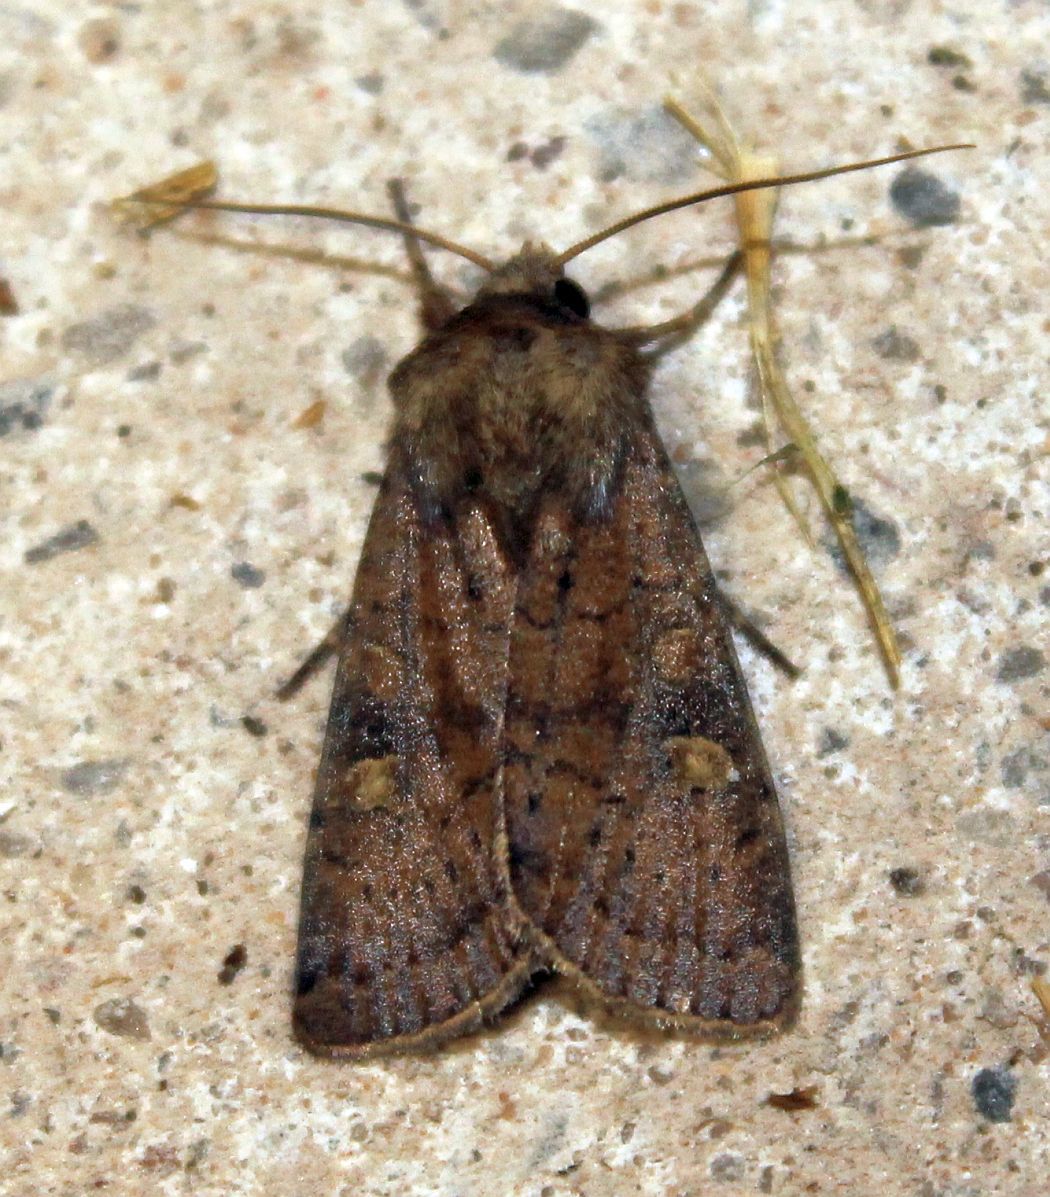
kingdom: Animalia
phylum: Arthropoda
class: Insecta
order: Lepidoptera
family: Noctuidae
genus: Xestia
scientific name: Xestia xanthographa
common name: Square-spot rustic
